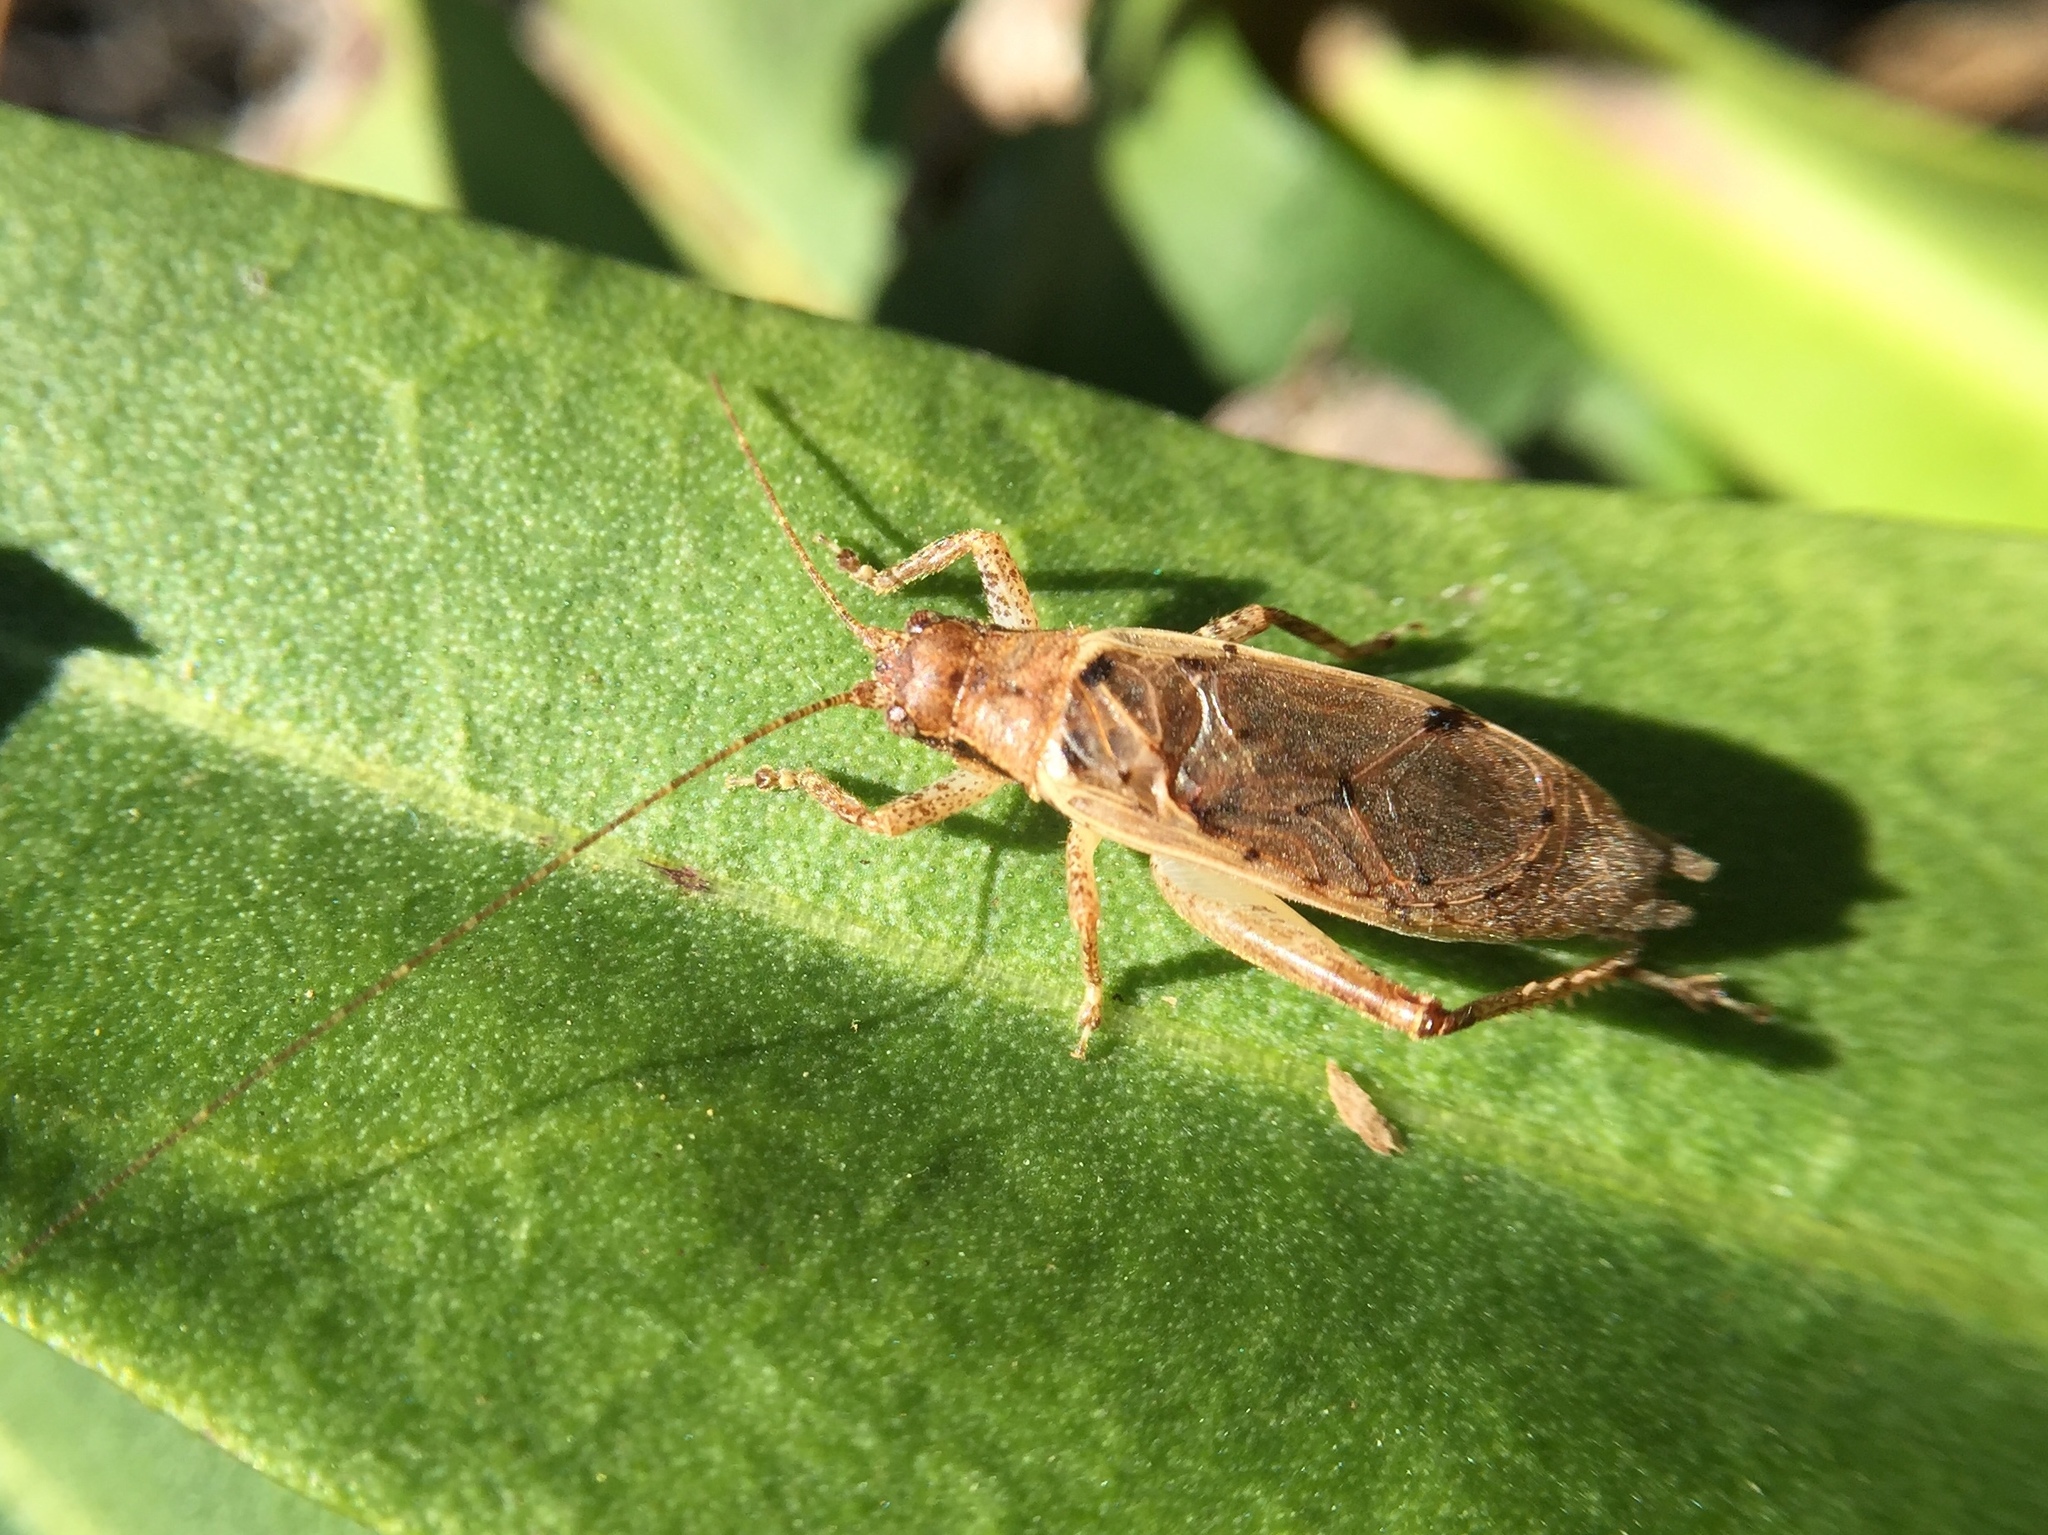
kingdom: Animalia
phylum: Arthropoda
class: Insecta
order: Orthoptera
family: Gryllidae
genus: Hapithus
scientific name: Hapithus saltator
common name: Jumping bush cricket
